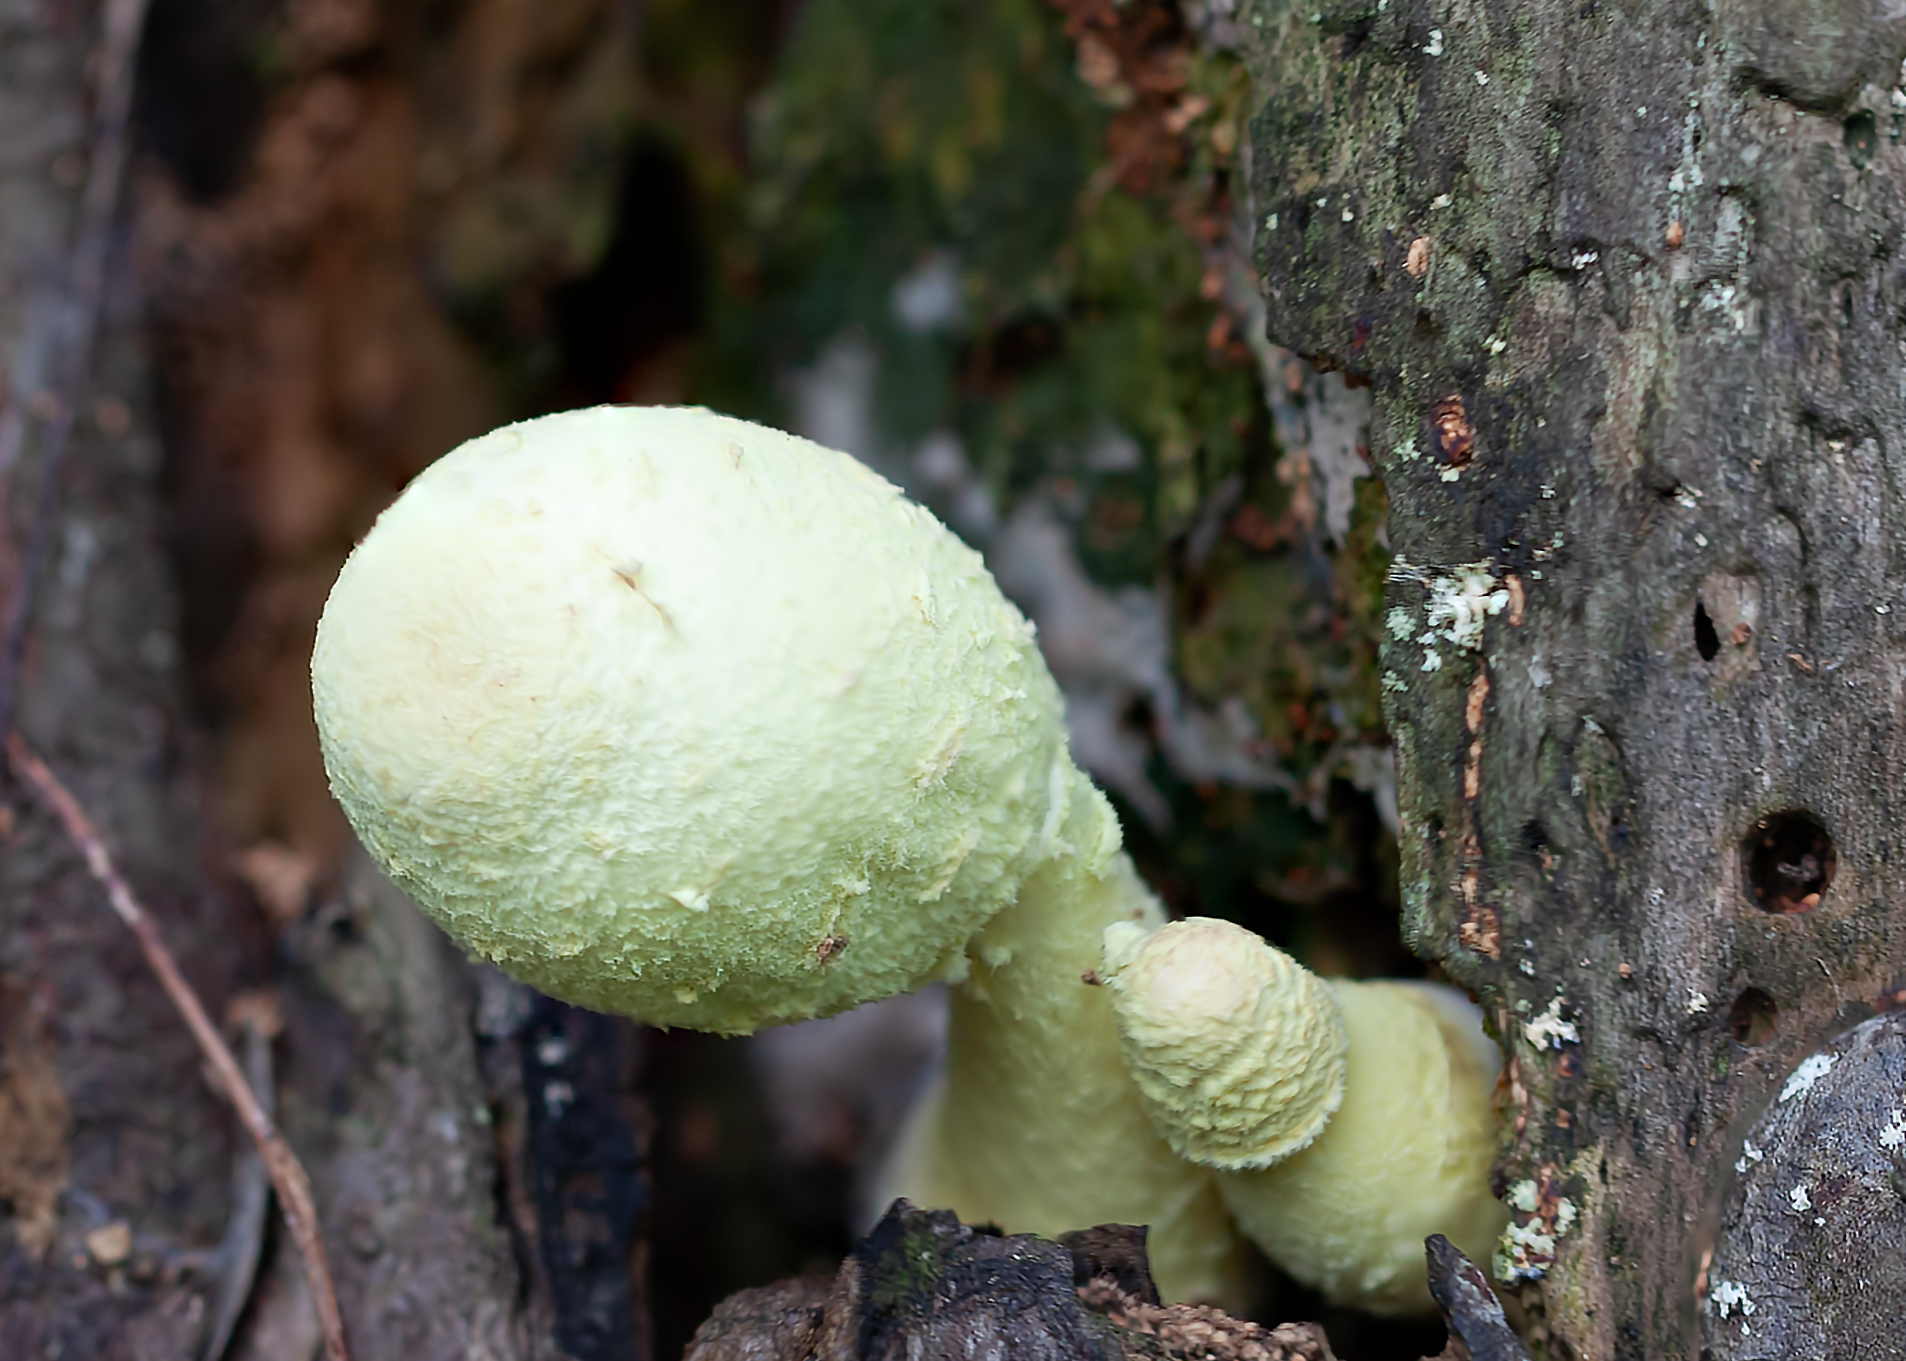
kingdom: Fungi
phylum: Basidiomycota
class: Agaricomycetes
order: Agaricales
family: Agaricaceae
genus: Leucocoprinus
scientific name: Leucocoprinus birnbaumii
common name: Plantpot dapperling
